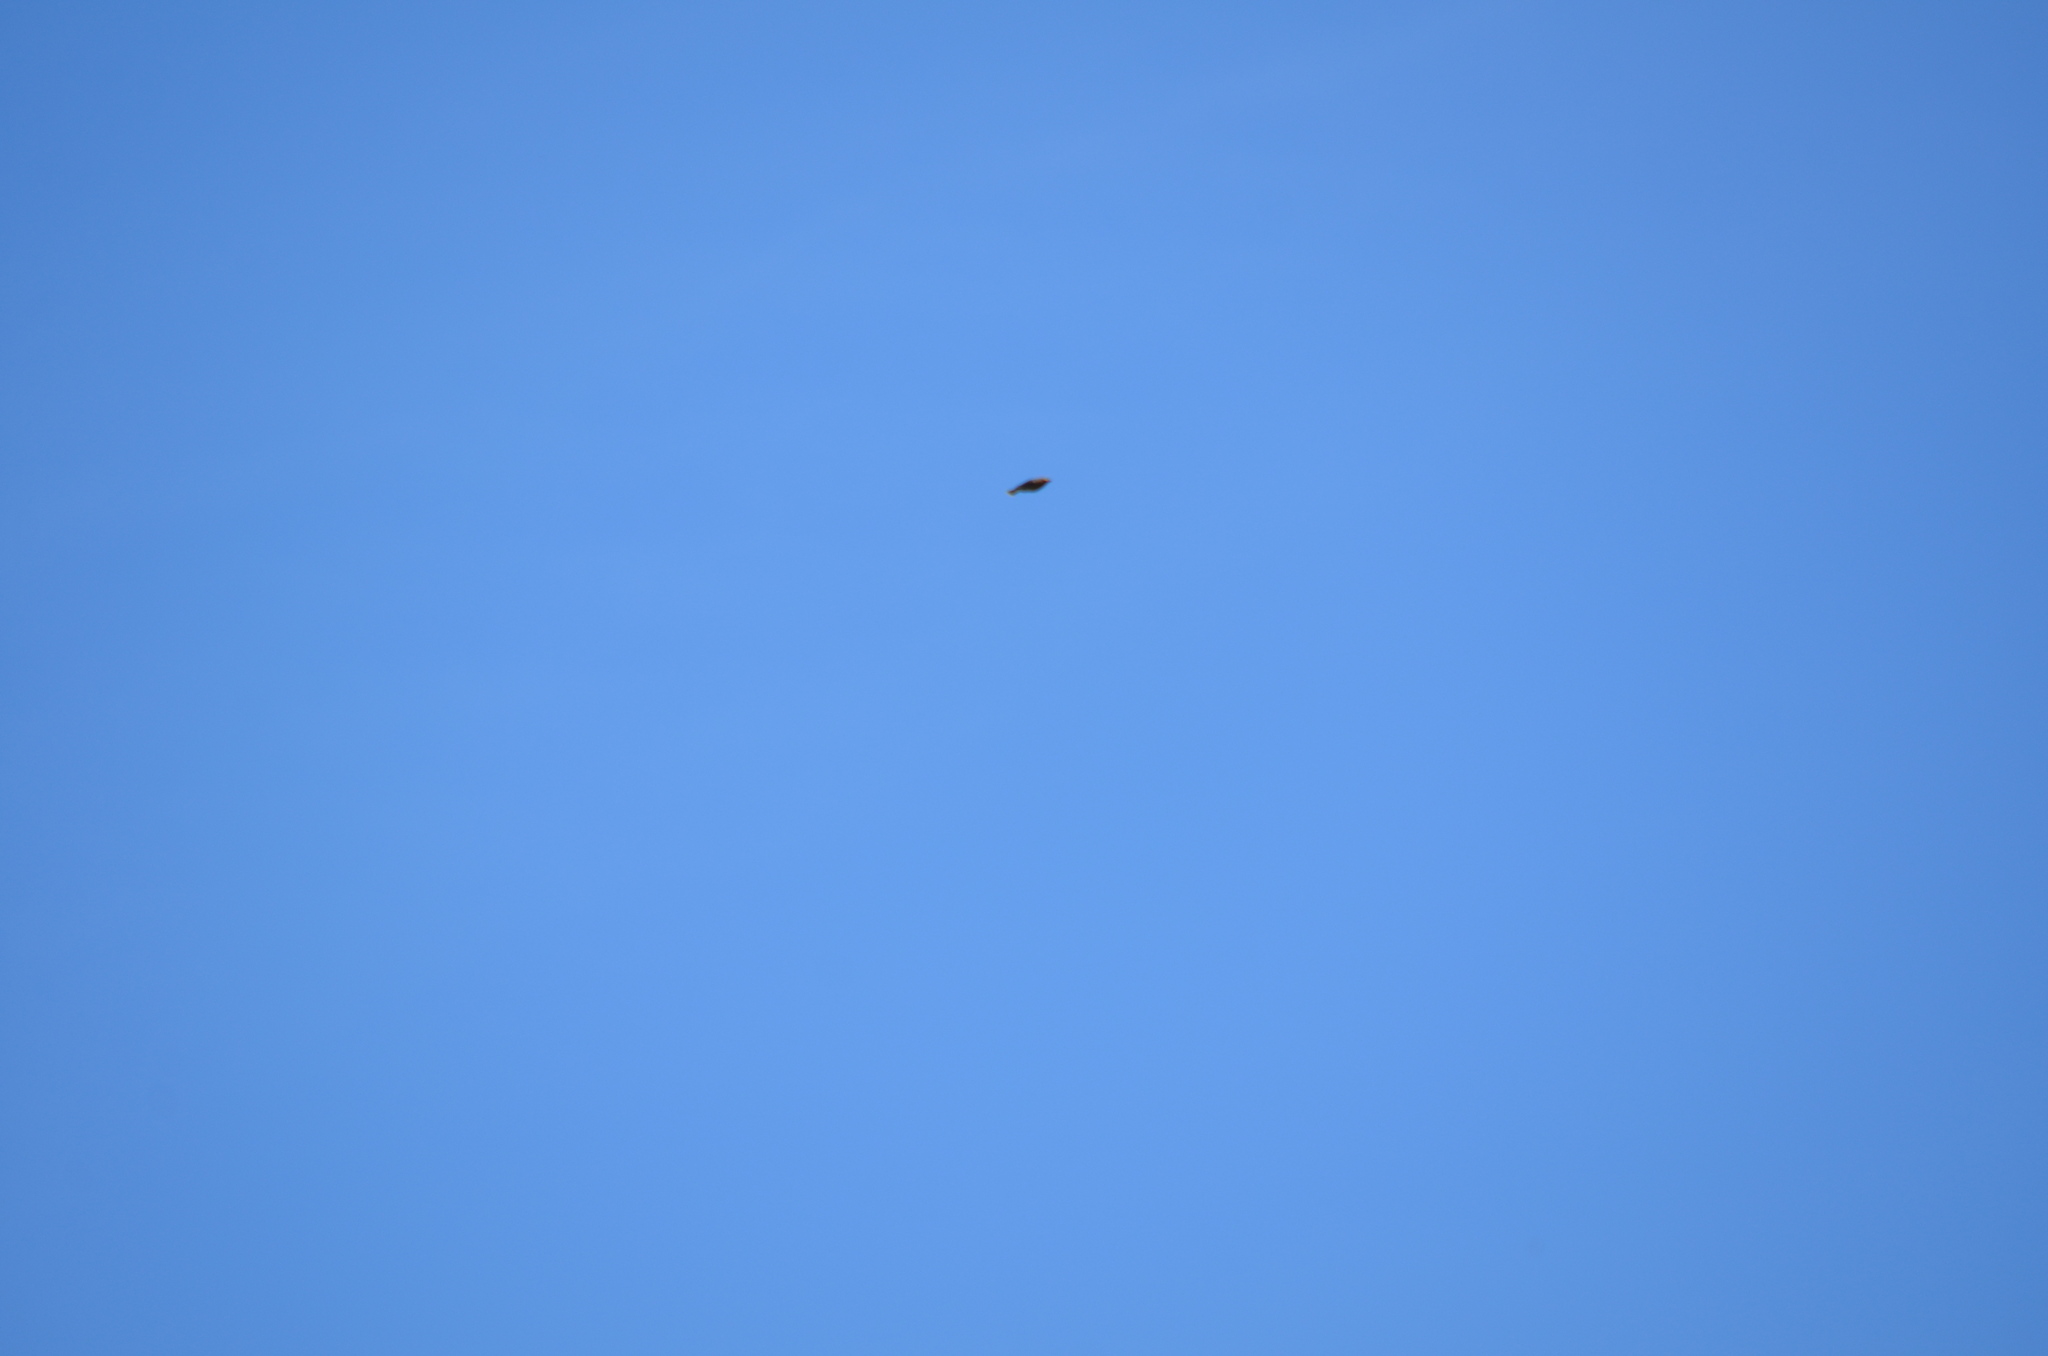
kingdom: Animalia
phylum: Chordata
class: Aves
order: Passeriformes
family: Bombycillidae
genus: Bombycilla
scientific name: Bombycilla cedrorum
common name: Cedar waxwing
